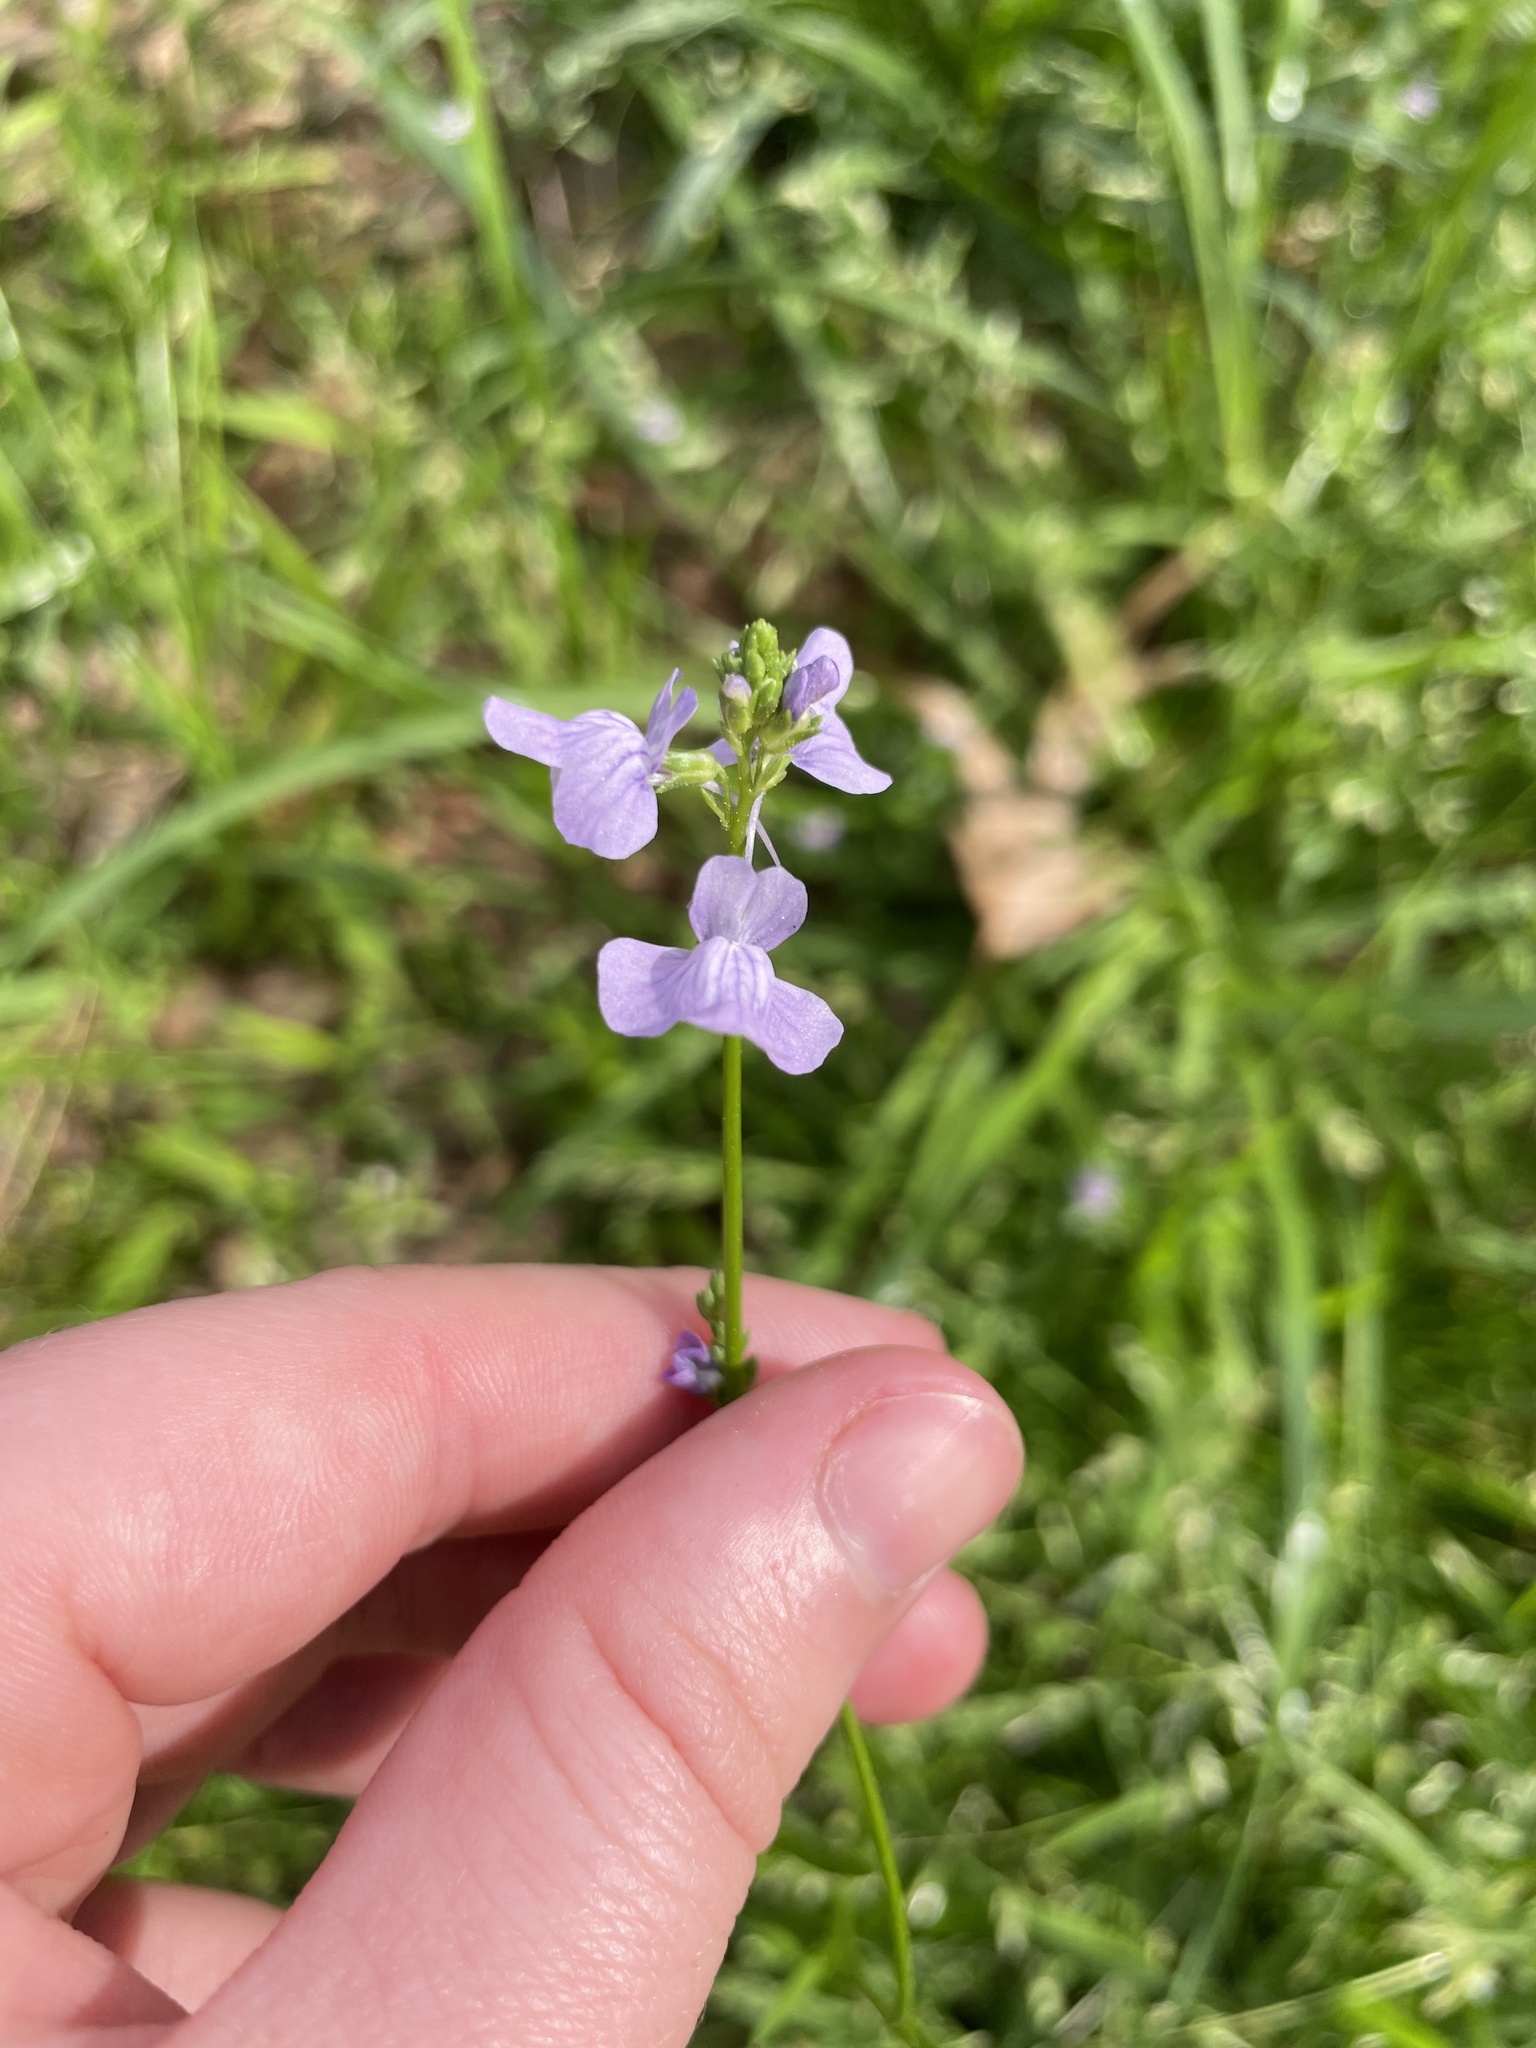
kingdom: Plantae
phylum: Tracheophyta
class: Magnoliopsida
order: Lamiales
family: Plantaginaceae
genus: Nuttallanthus
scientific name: Nuttallanthus texanus
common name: Texas toadflax
